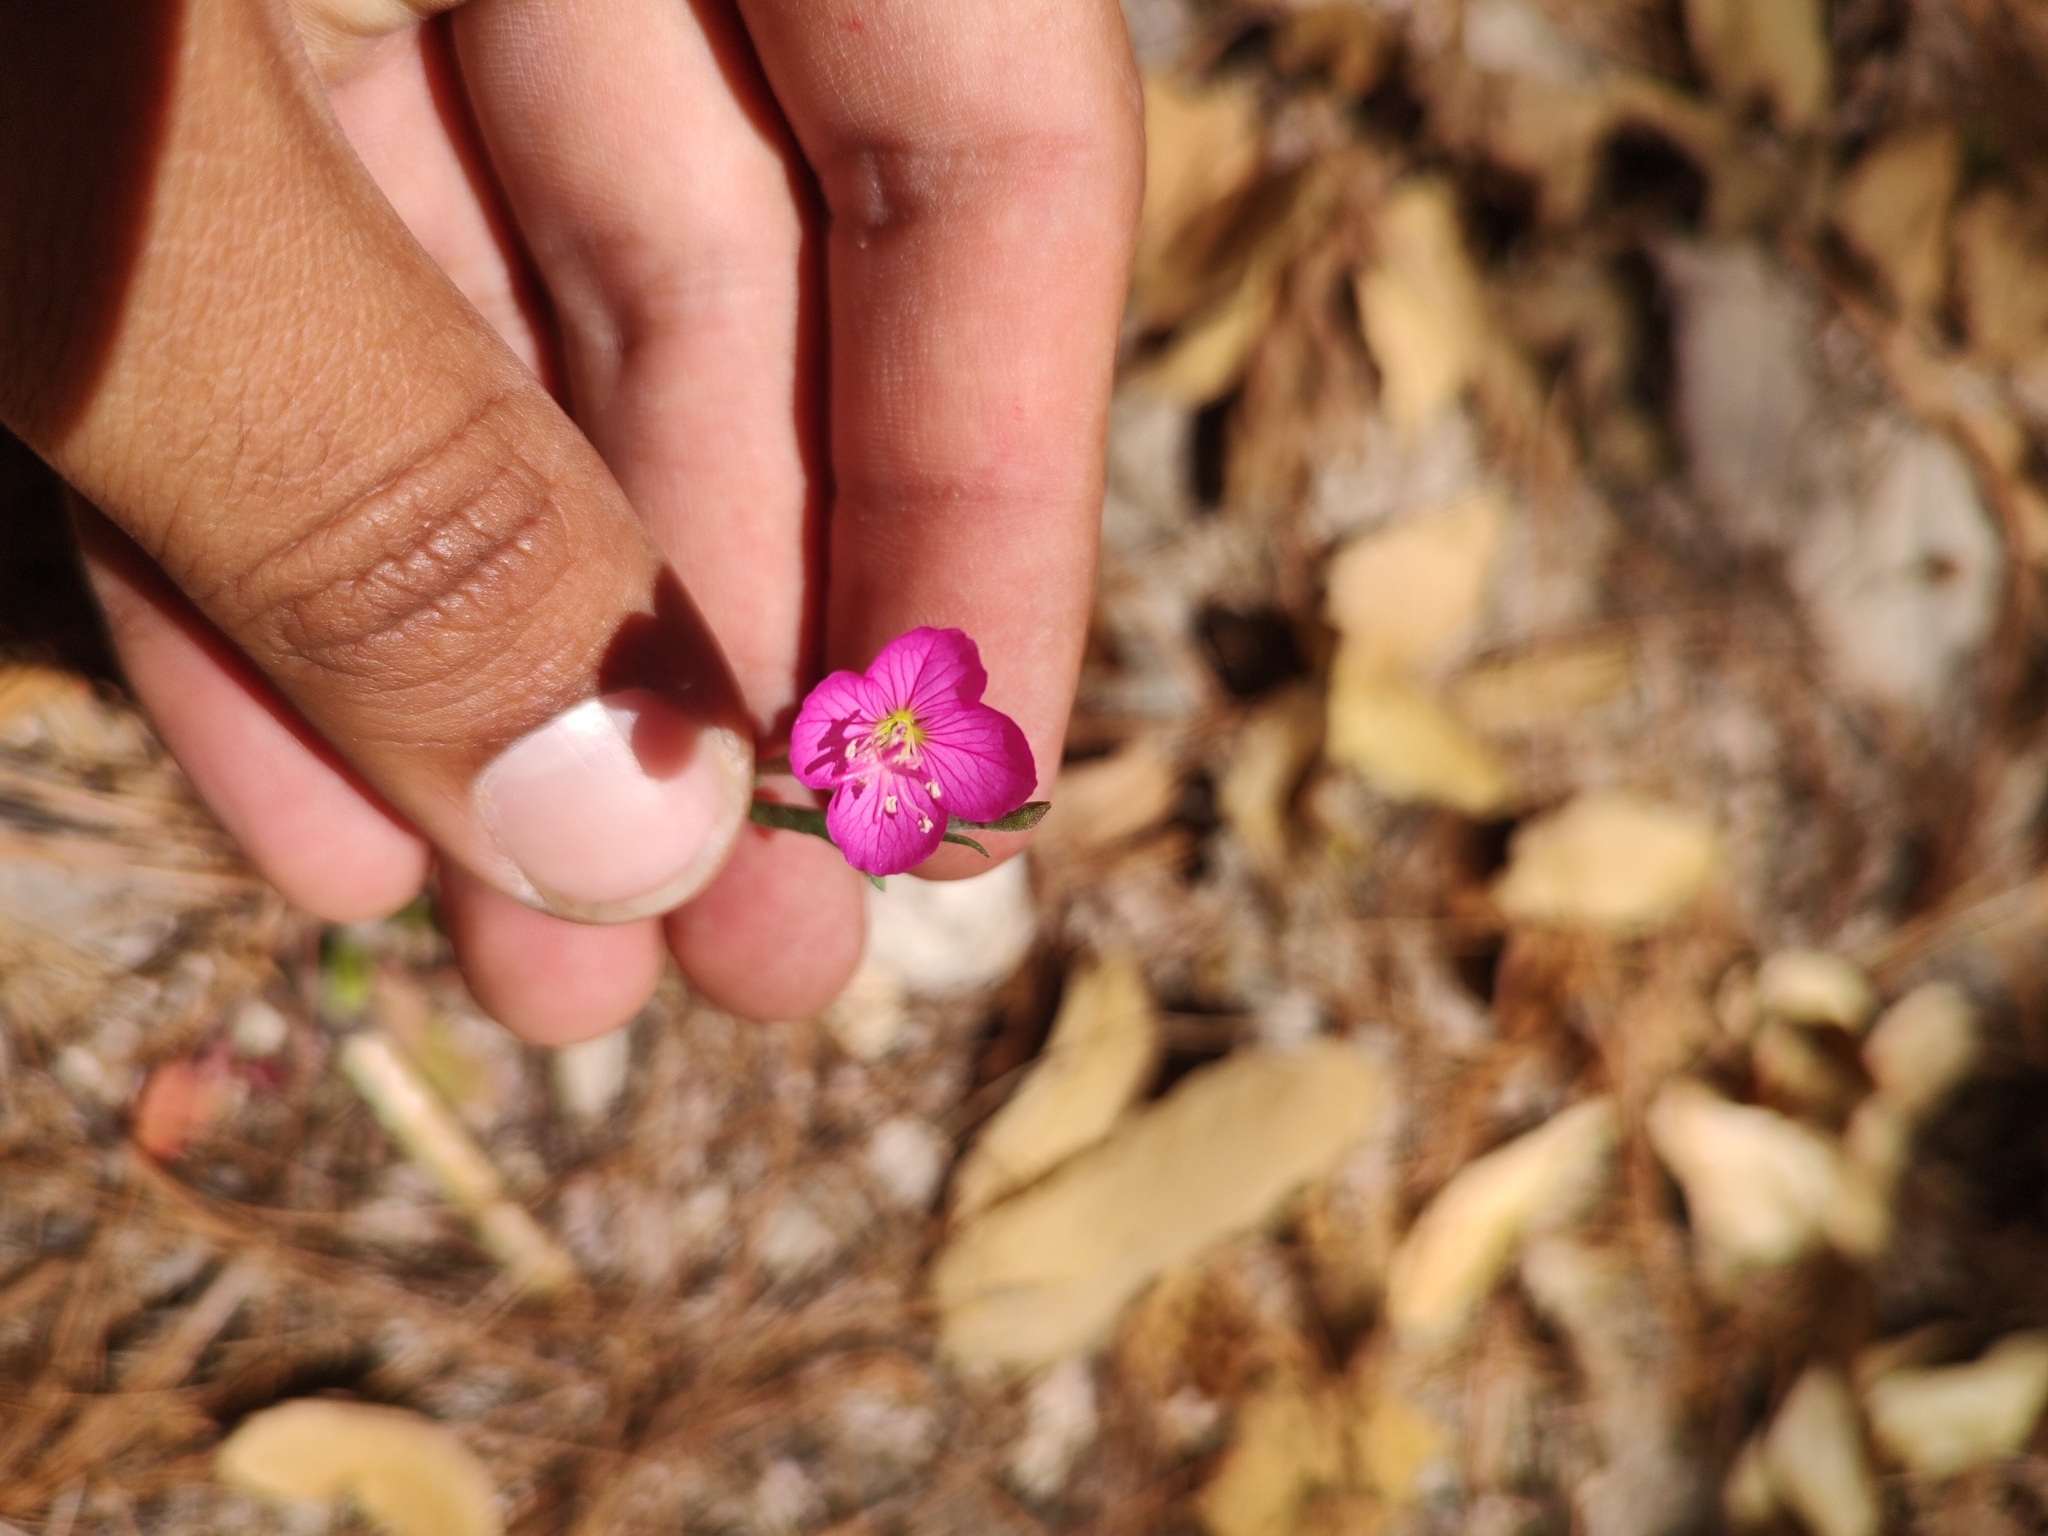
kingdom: Plantae
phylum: Tracheophyta
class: Magnoliopsida
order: Myrtales
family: Onagraceae
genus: Oenothera
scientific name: Oenothera rosea
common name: Rosy evening-primrose
